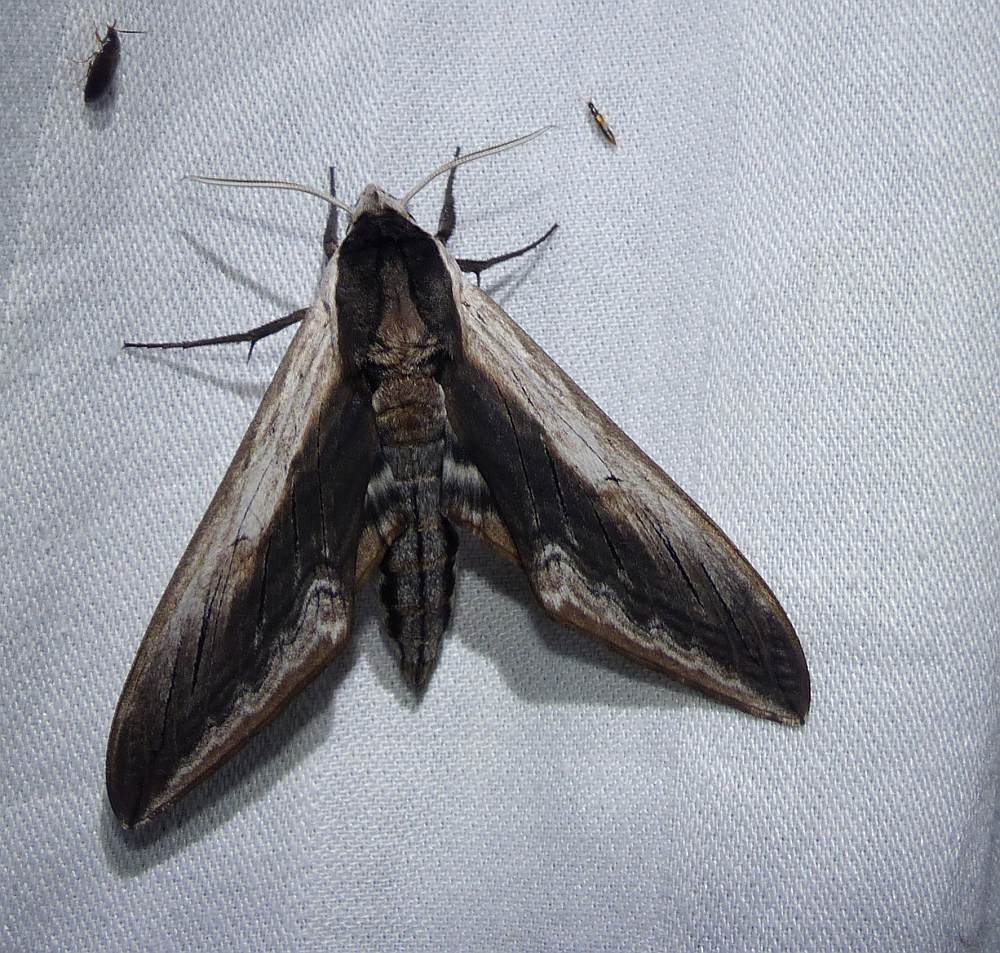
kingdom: Animalia
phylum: Arthropoda
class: Insecta
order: Lepidoptera
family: Sphingidae
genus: Sphinx
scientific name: Sphinx drupiferarum
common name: Wild cherry sphinx
